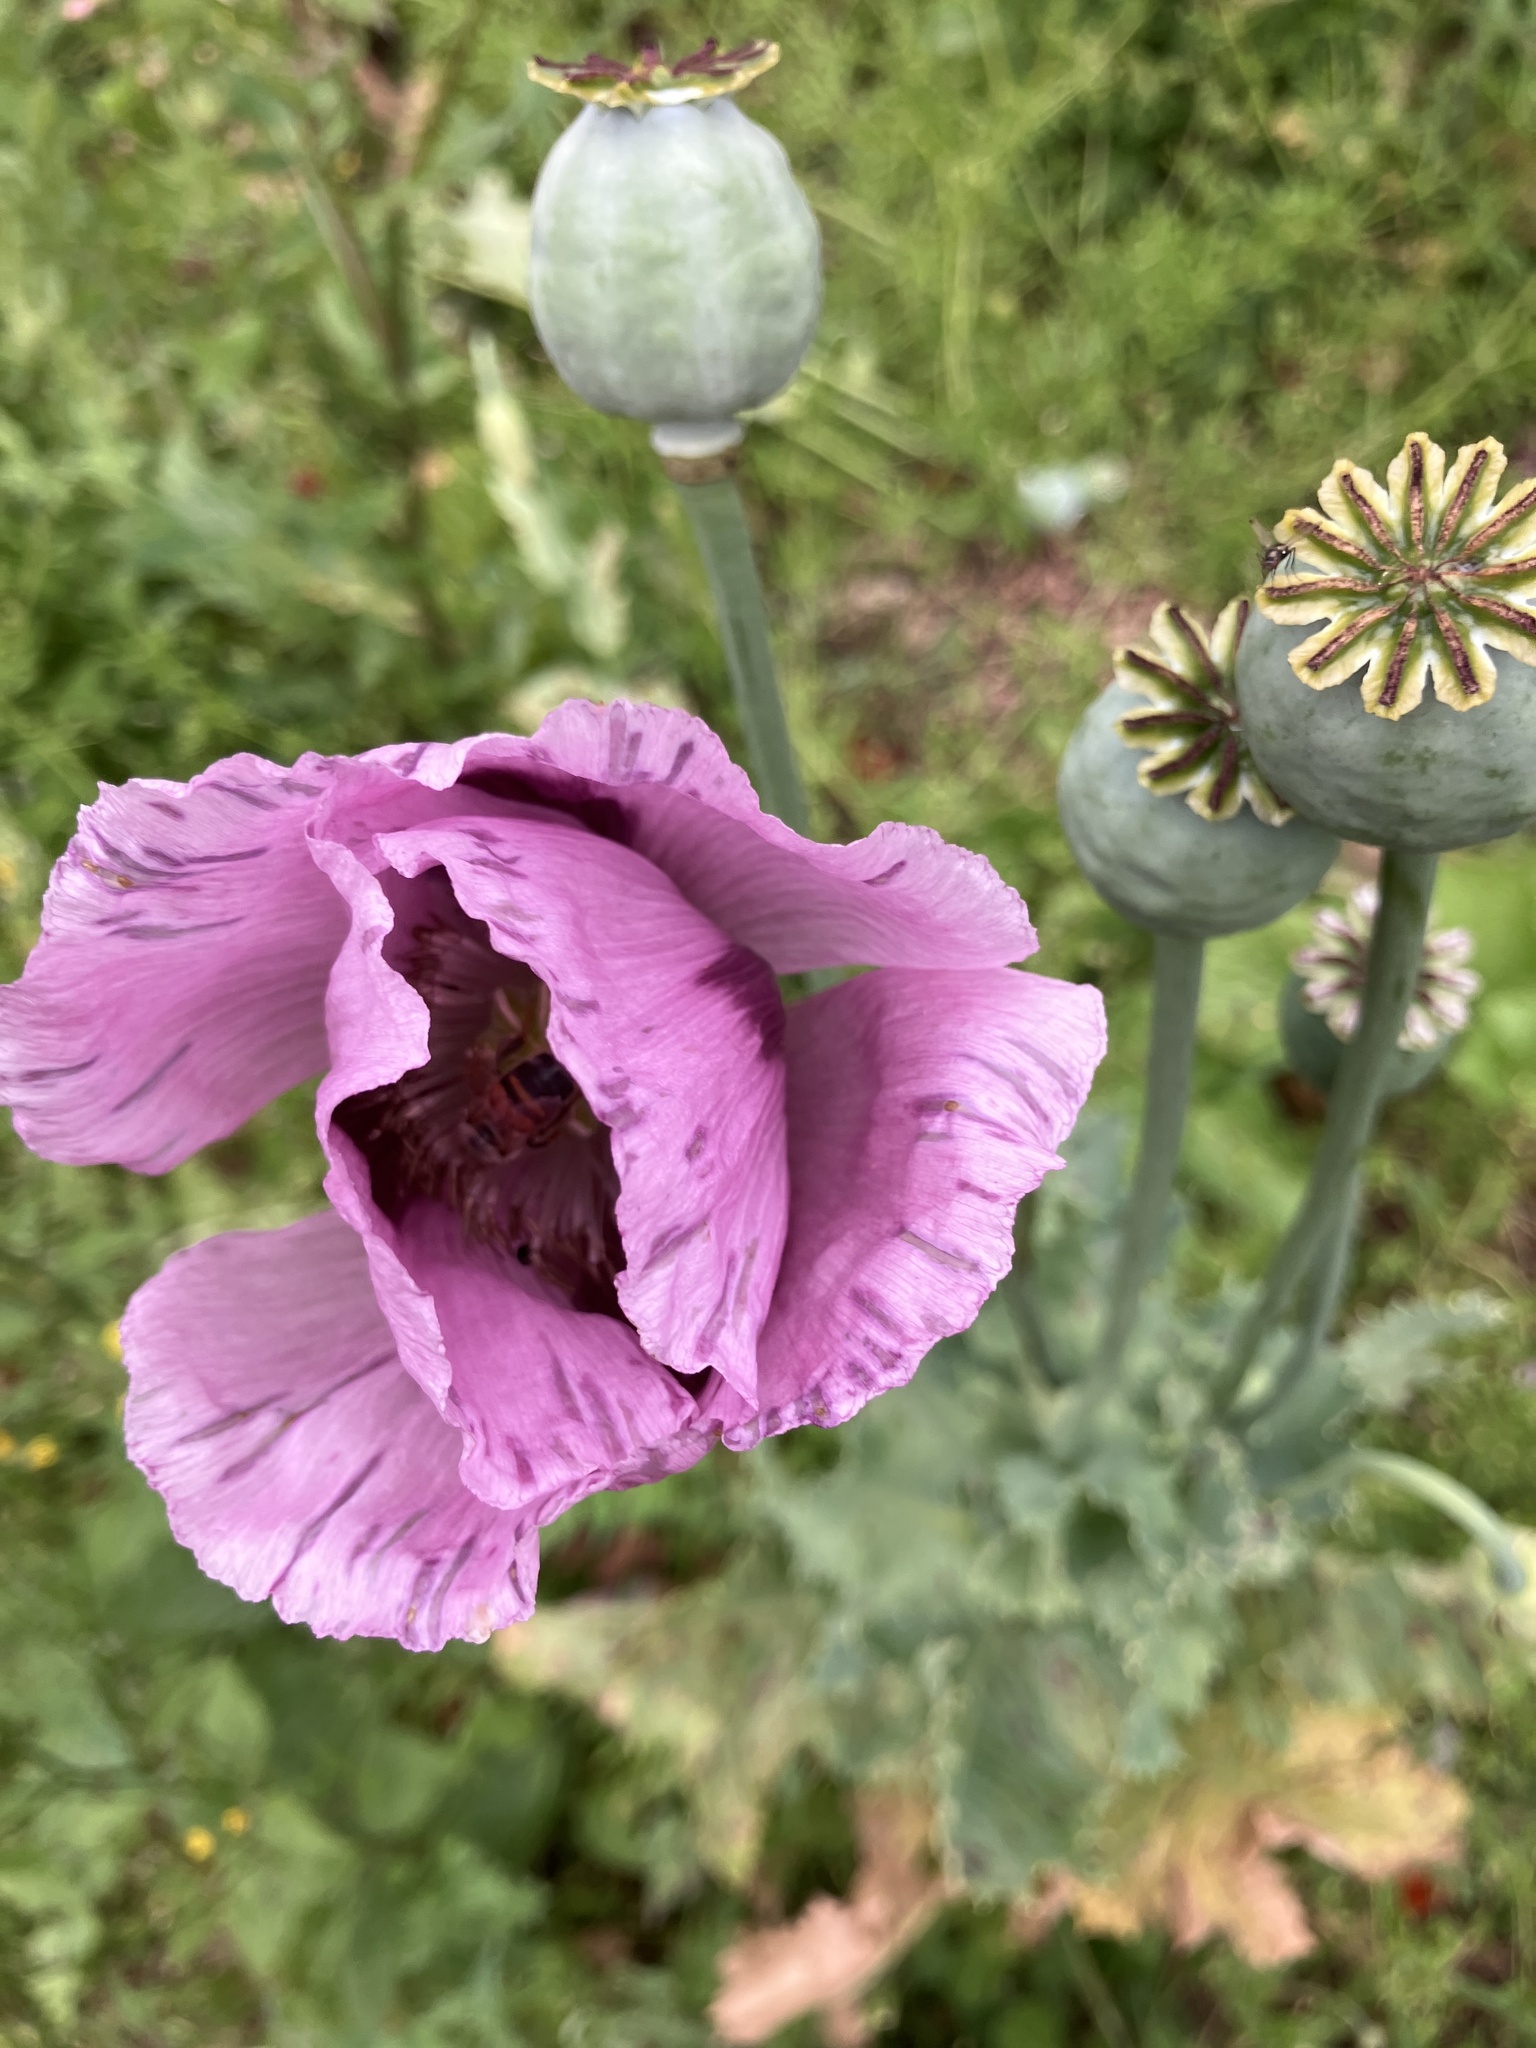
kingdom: Plantae
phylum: Tracheophyta
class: Magnoliopsida
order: Ranunculales
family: Papaveraceae
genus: Papaver
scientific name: Papaver somniferum
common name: Opium poppy
